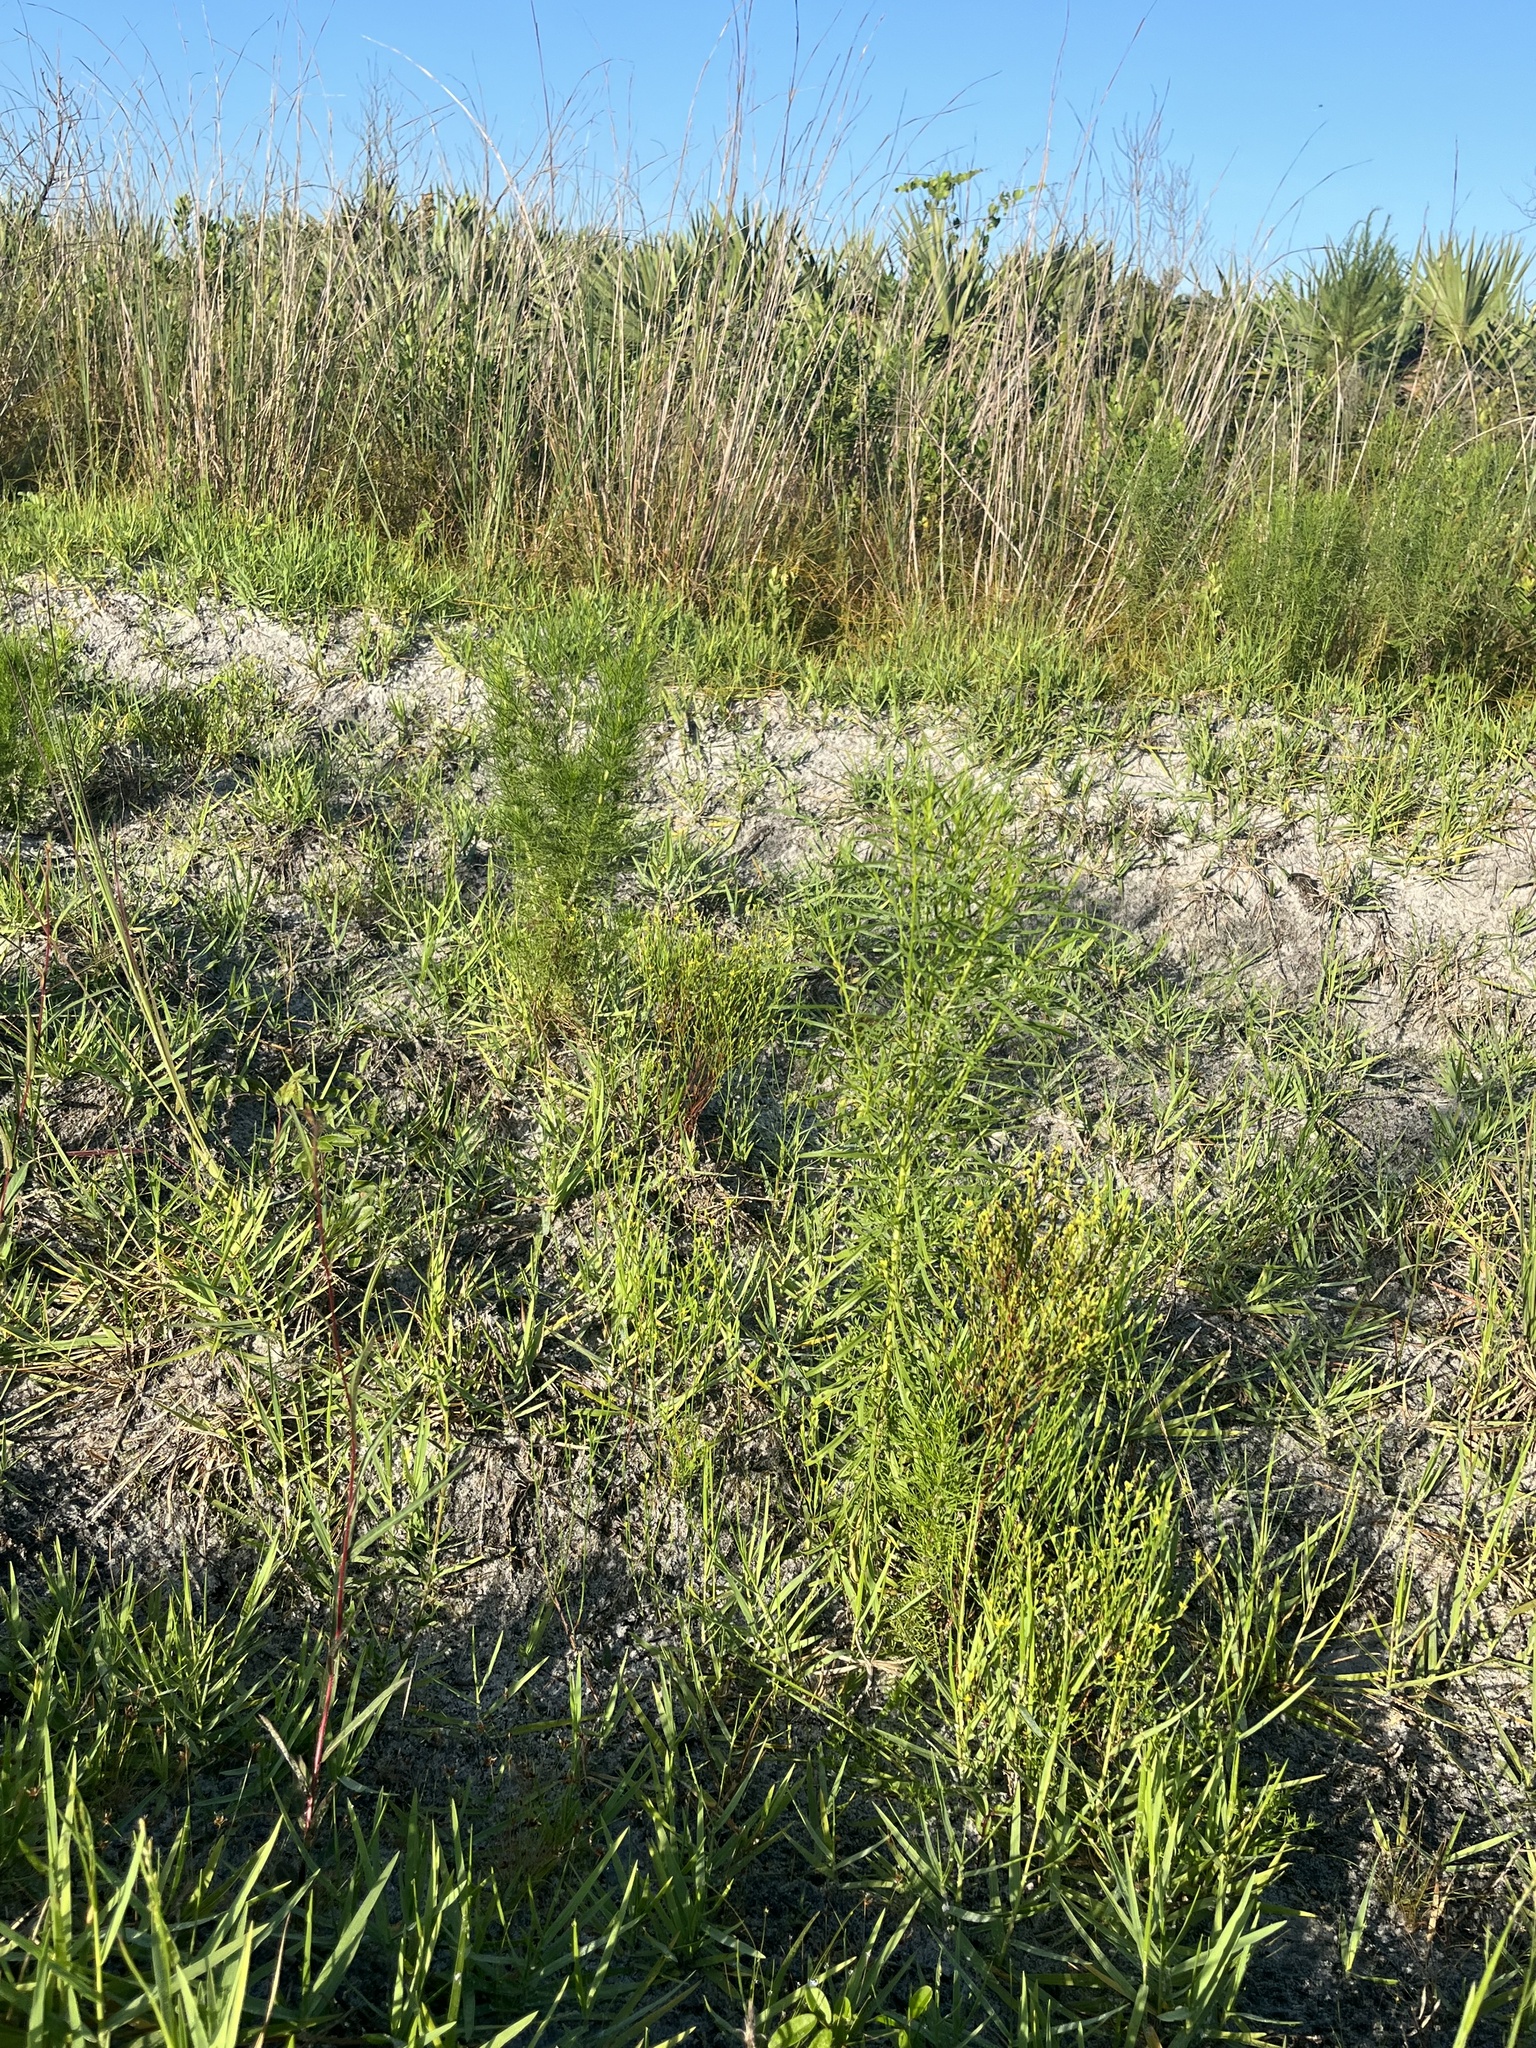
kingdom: Plantae
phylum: Tracheophyta
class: Magnoliopsida
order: Malpighiales
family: Hypericaceae
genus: Hypericum
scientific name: Hypericum gentianoides
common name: Gentian-leaved st. john's-wort
